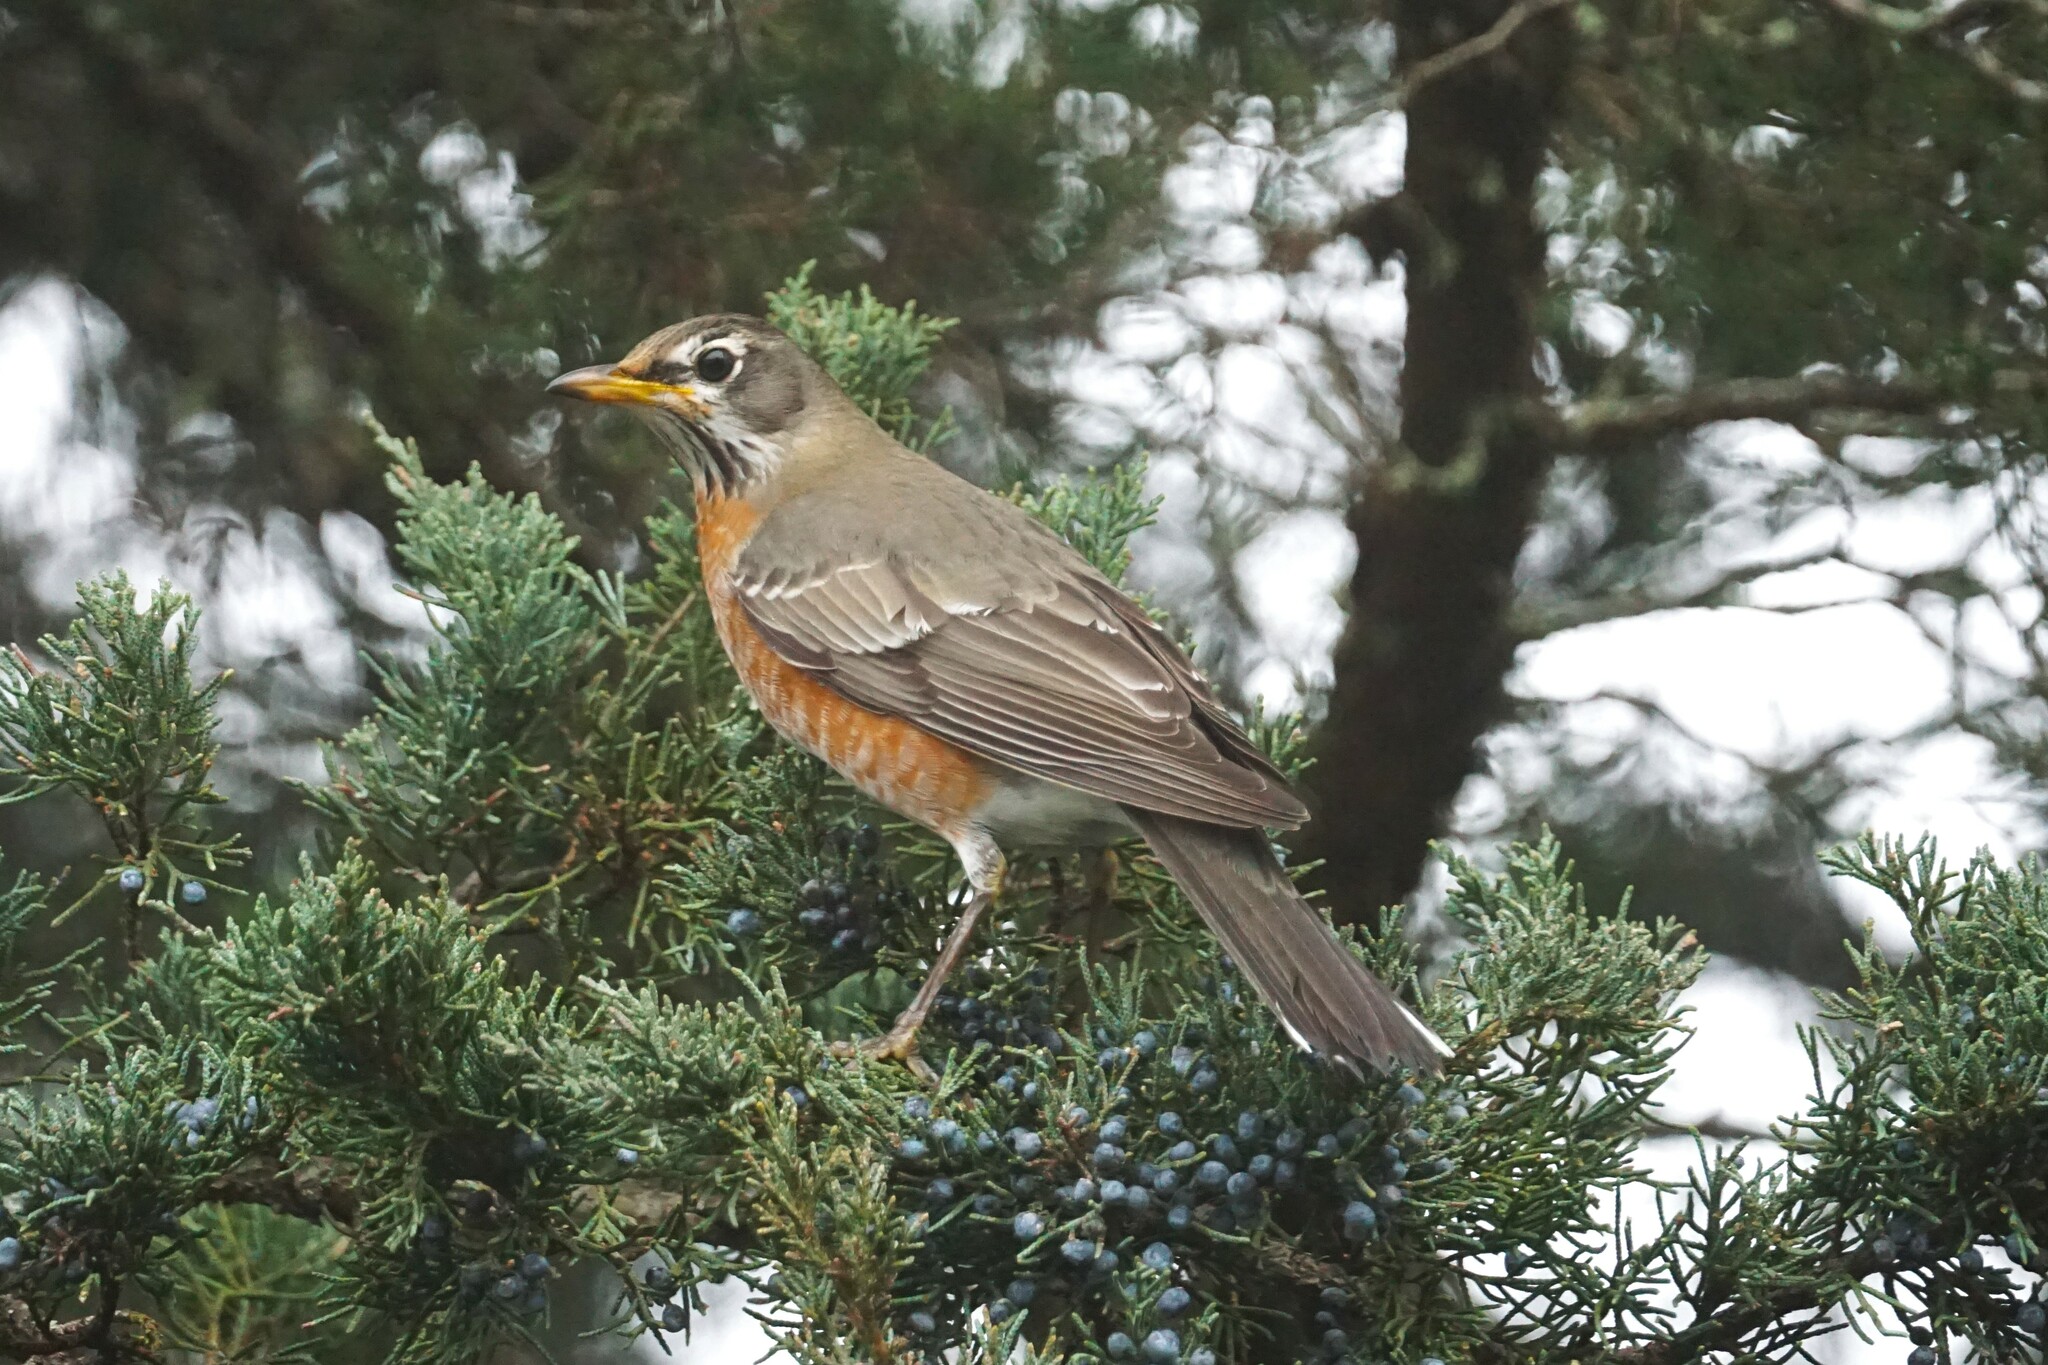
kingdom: Animalia
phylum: Chordata
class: Aves
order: Passeriformes
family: Turdidae
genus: Turdus
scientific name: Turdus migratorius
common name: American robin
